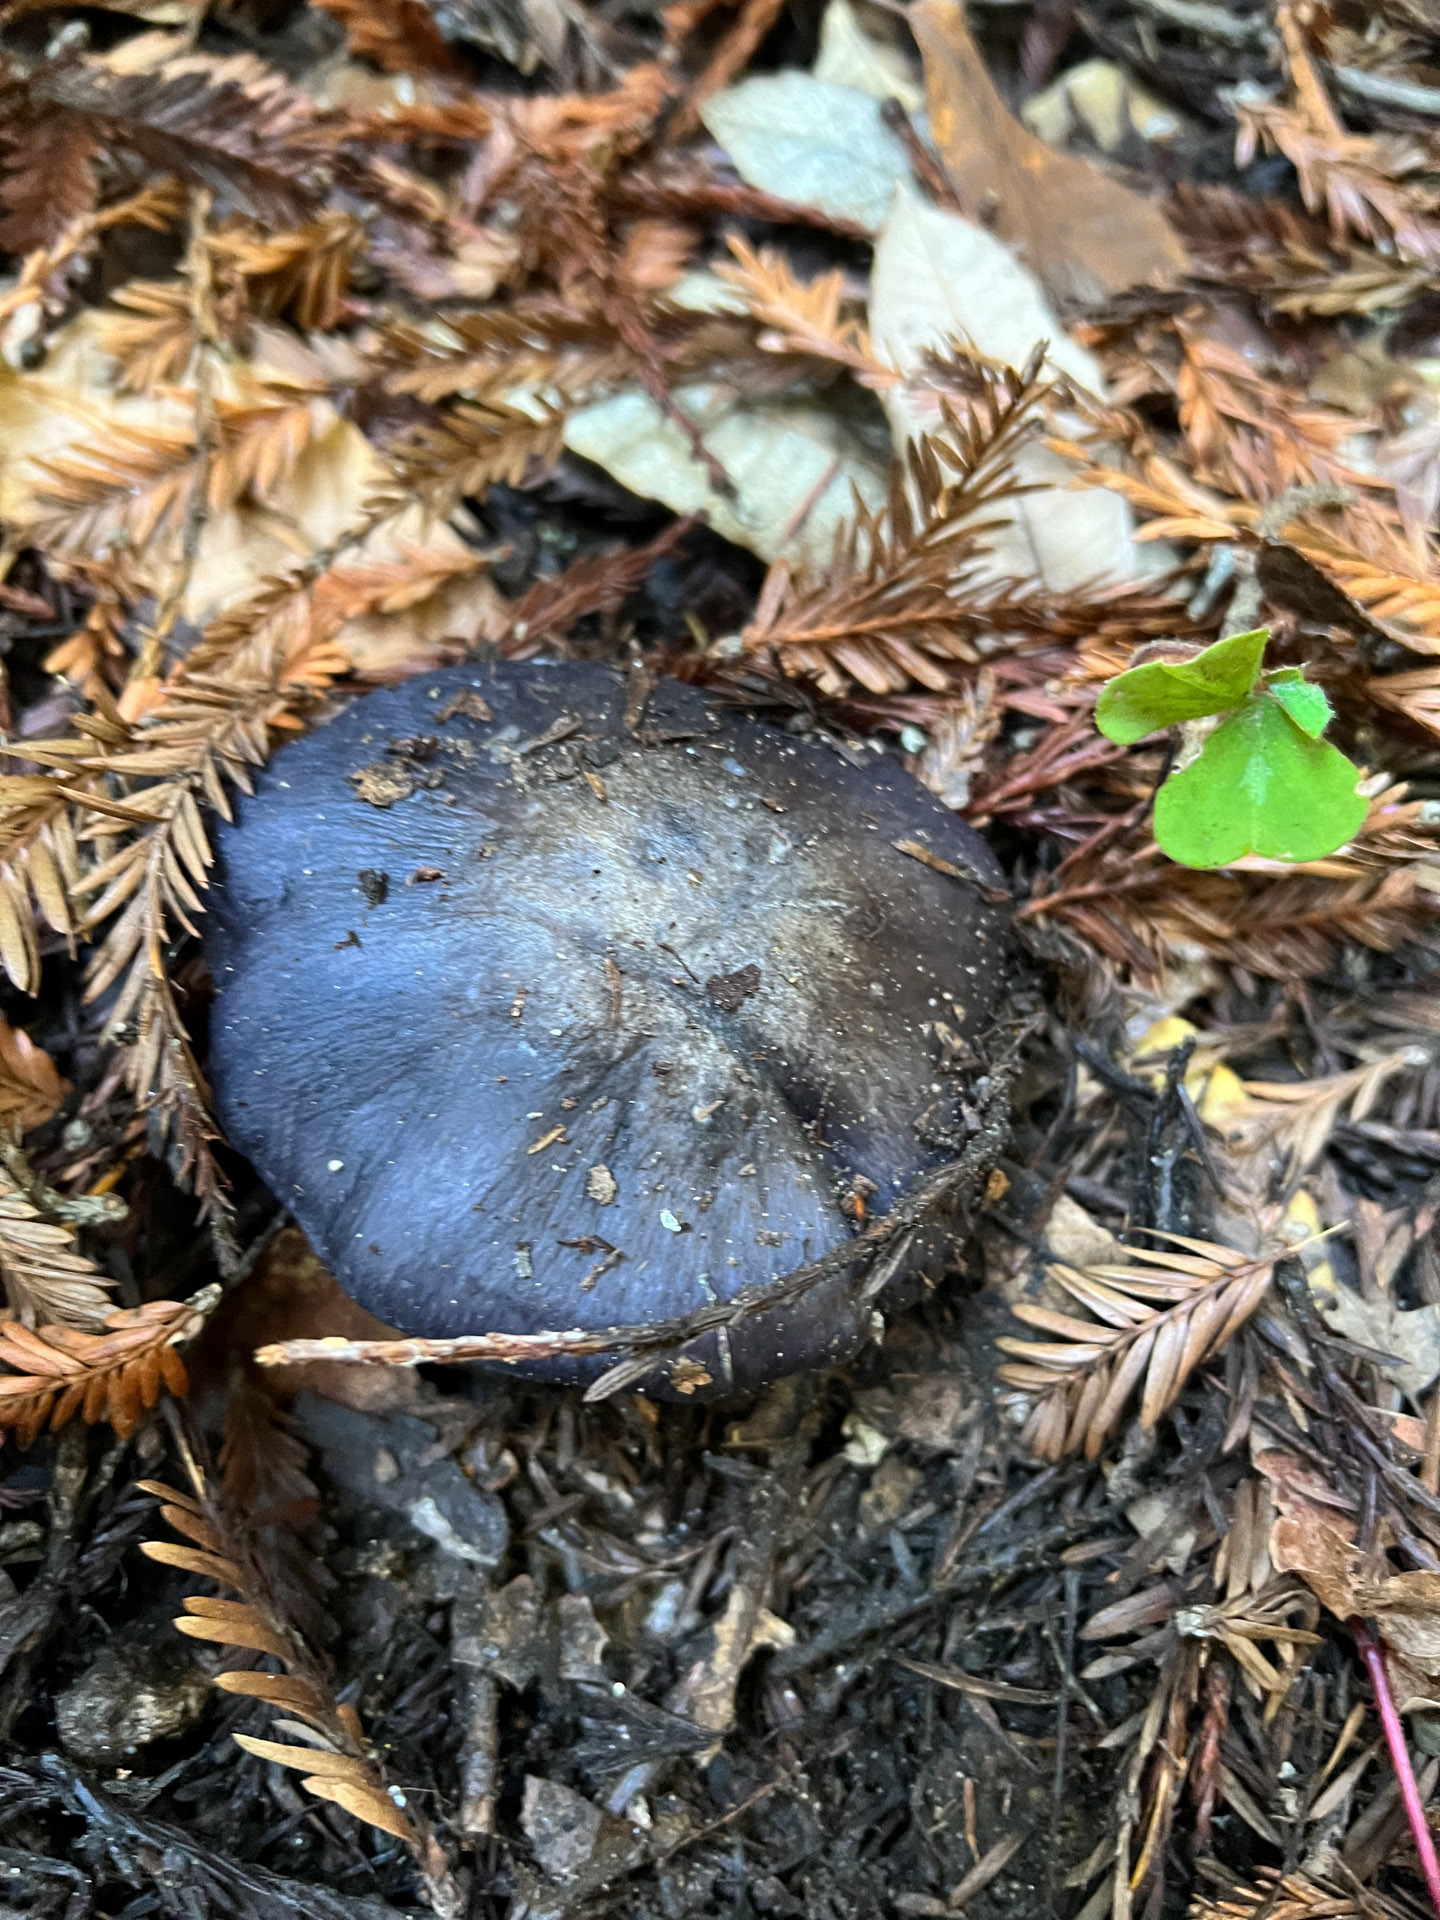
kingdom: Fungi
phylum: Basidiomycota
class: Agaricomycetes
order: Agaricales
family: Entolomataceae
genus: Entoloma
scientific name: Entoloma medianox
